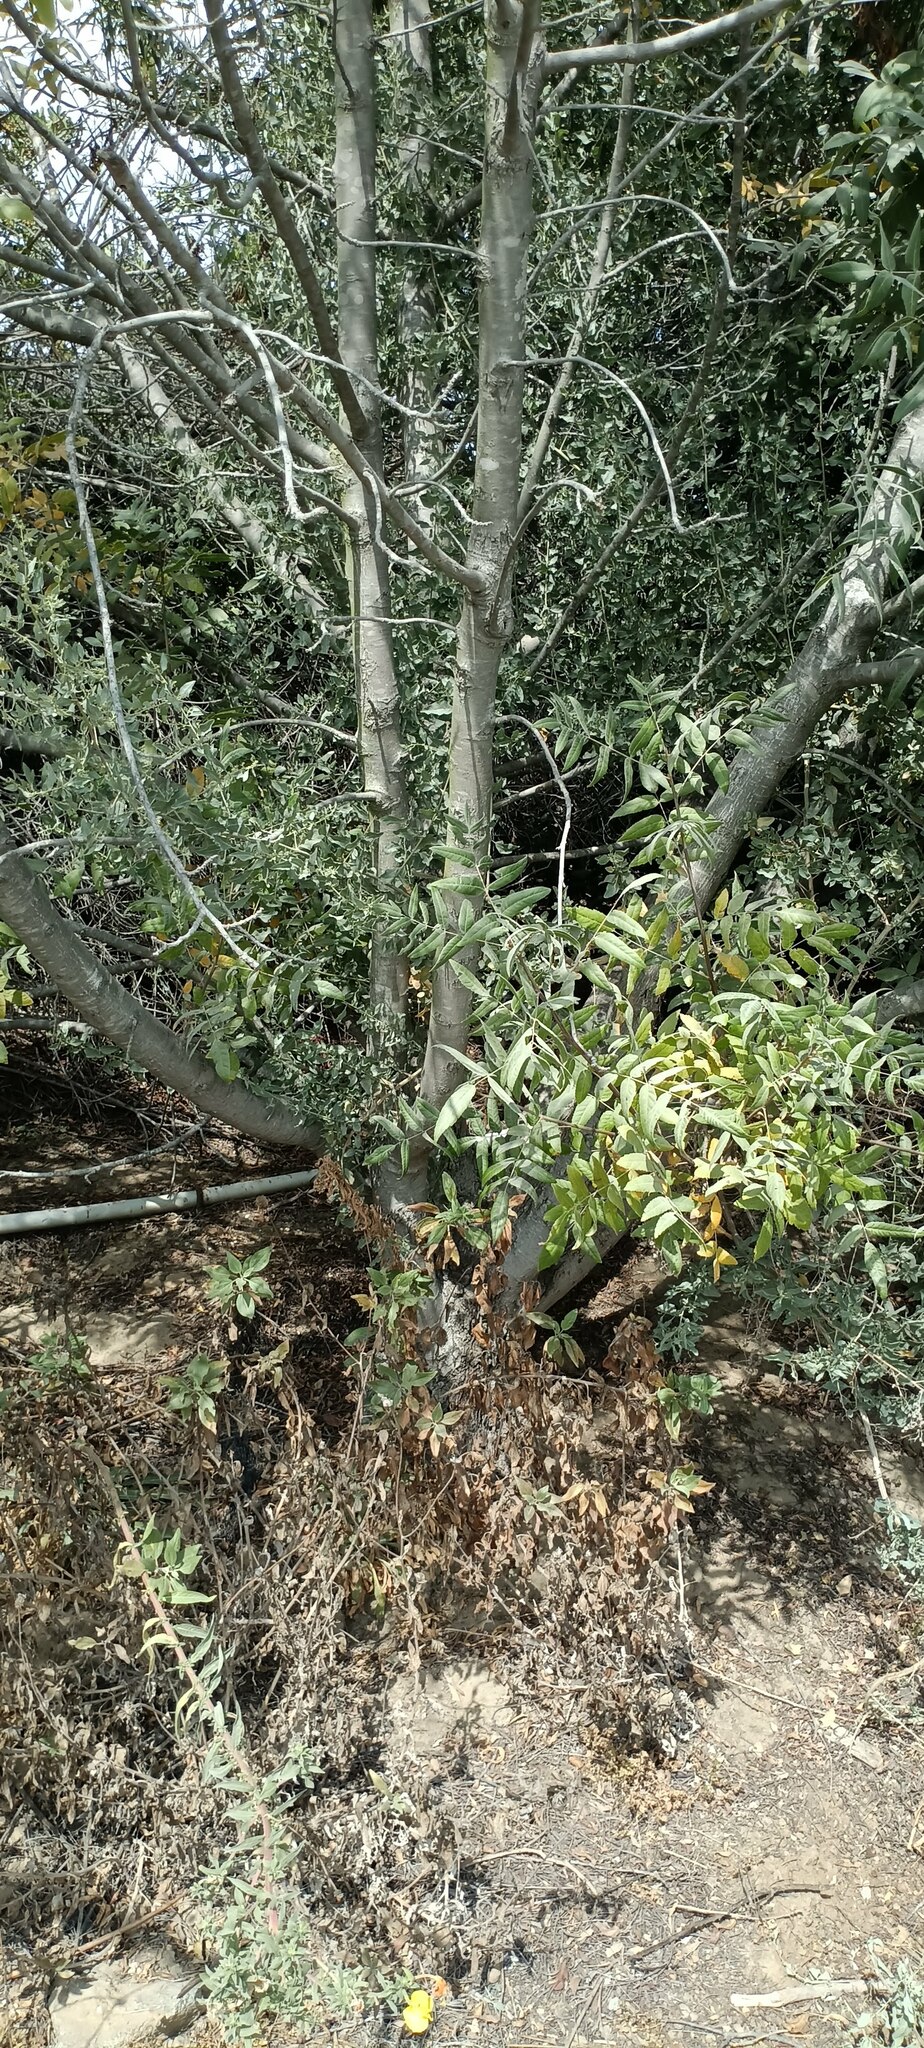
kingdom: Plantae
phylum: Tracheophyta
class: Magnoliopsida
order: Fagales
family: Juglandaceae
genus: Juglans
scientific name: Juglans californica
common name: Southern california black walnut
